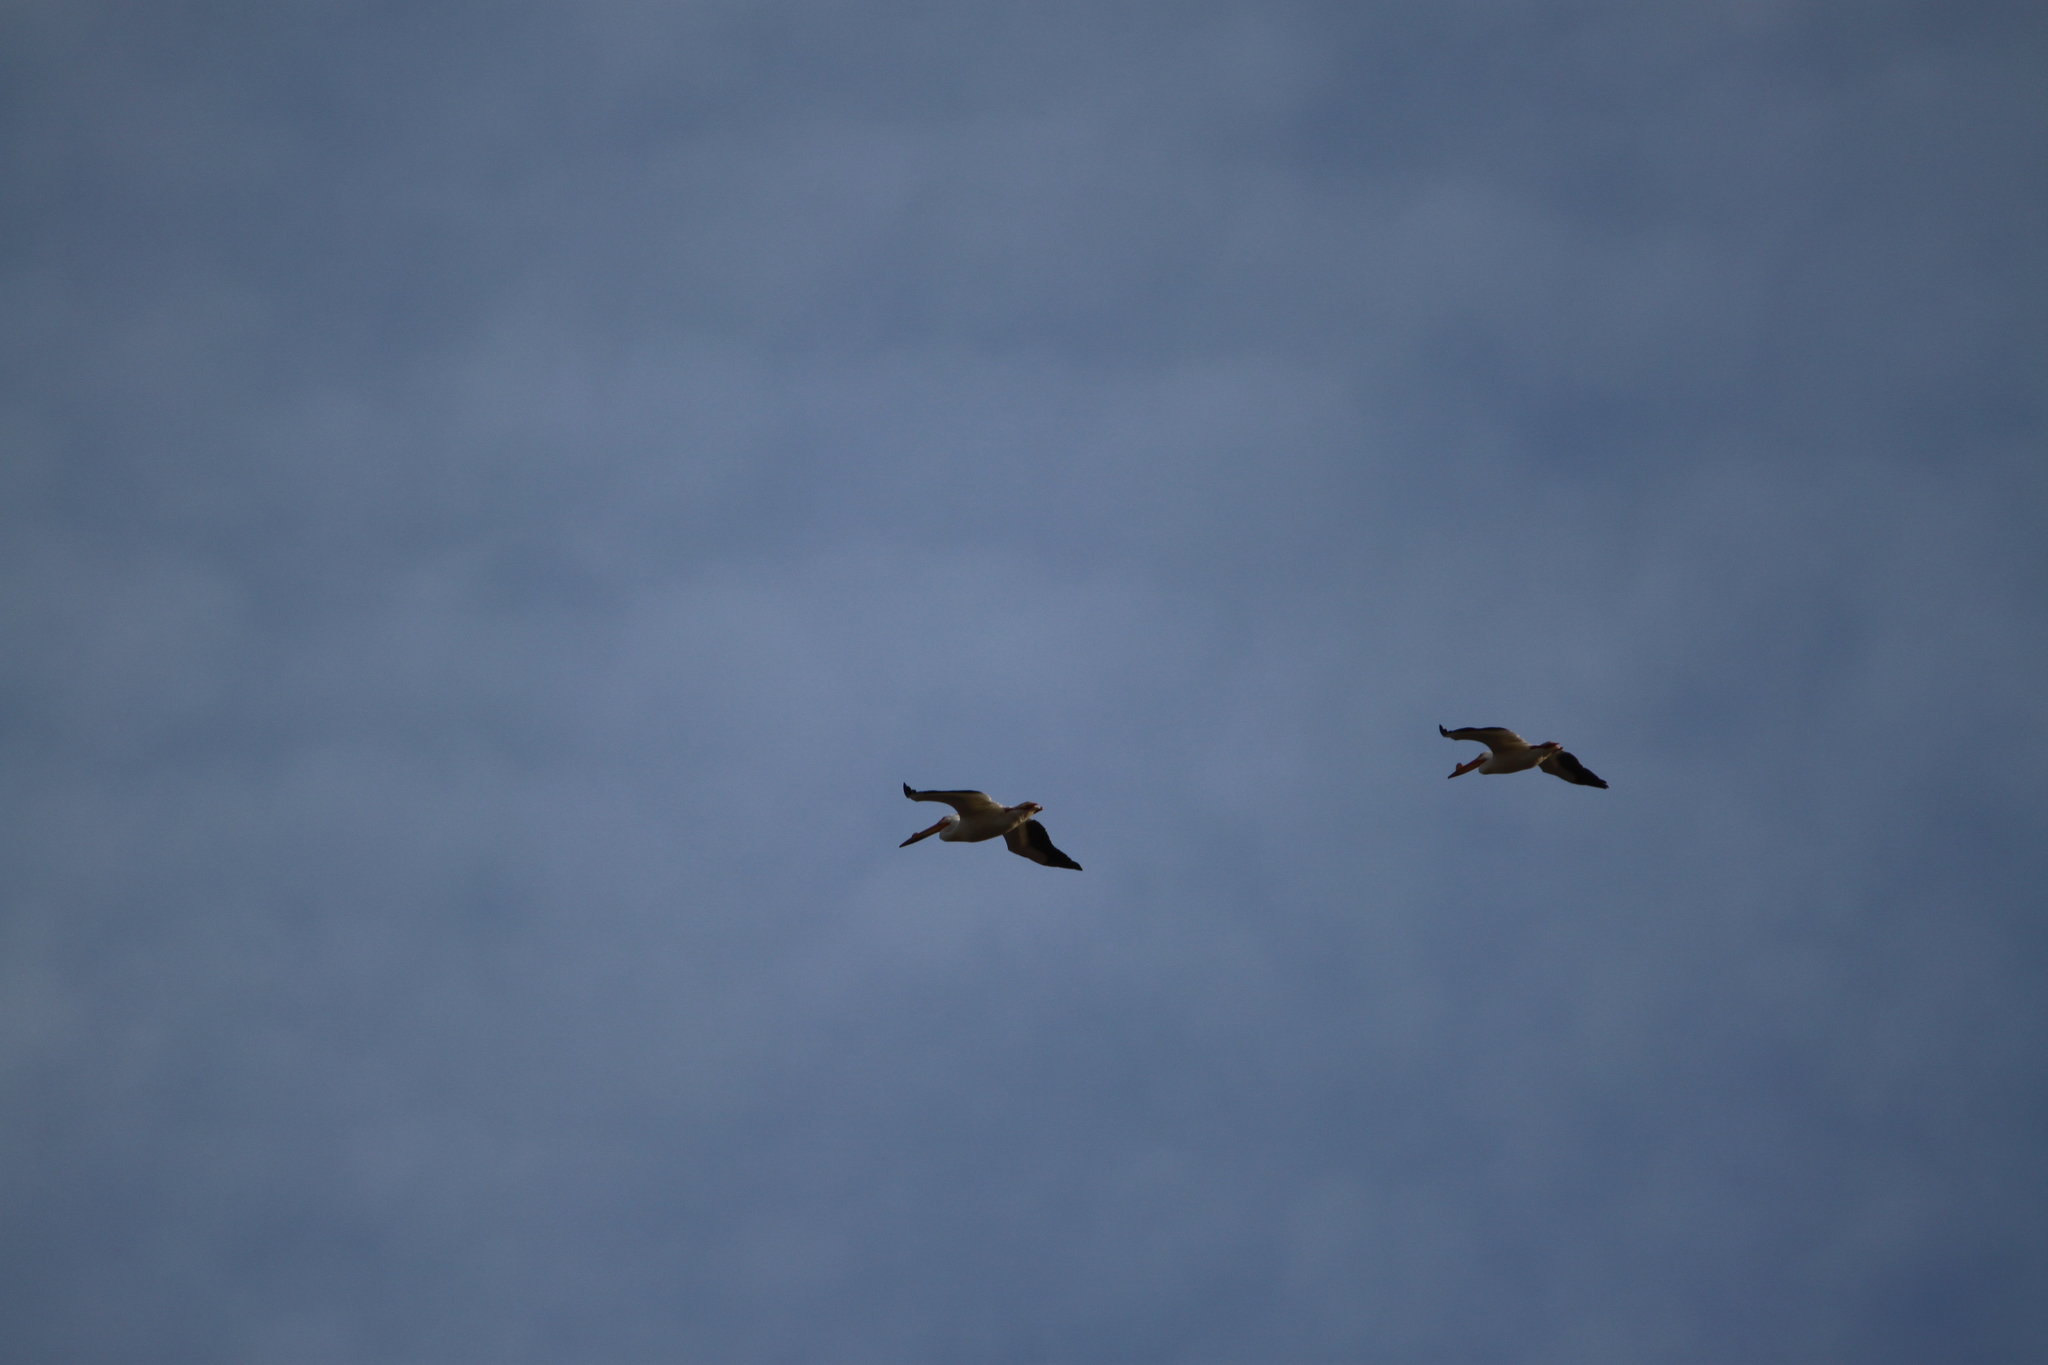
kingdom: Animalia
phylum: Chordata
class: Aves
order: Pelecaniformes
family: Pelecanidae
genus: Pelecanus
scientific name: Pelecanus erythrorhynchos
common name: American white pelican
